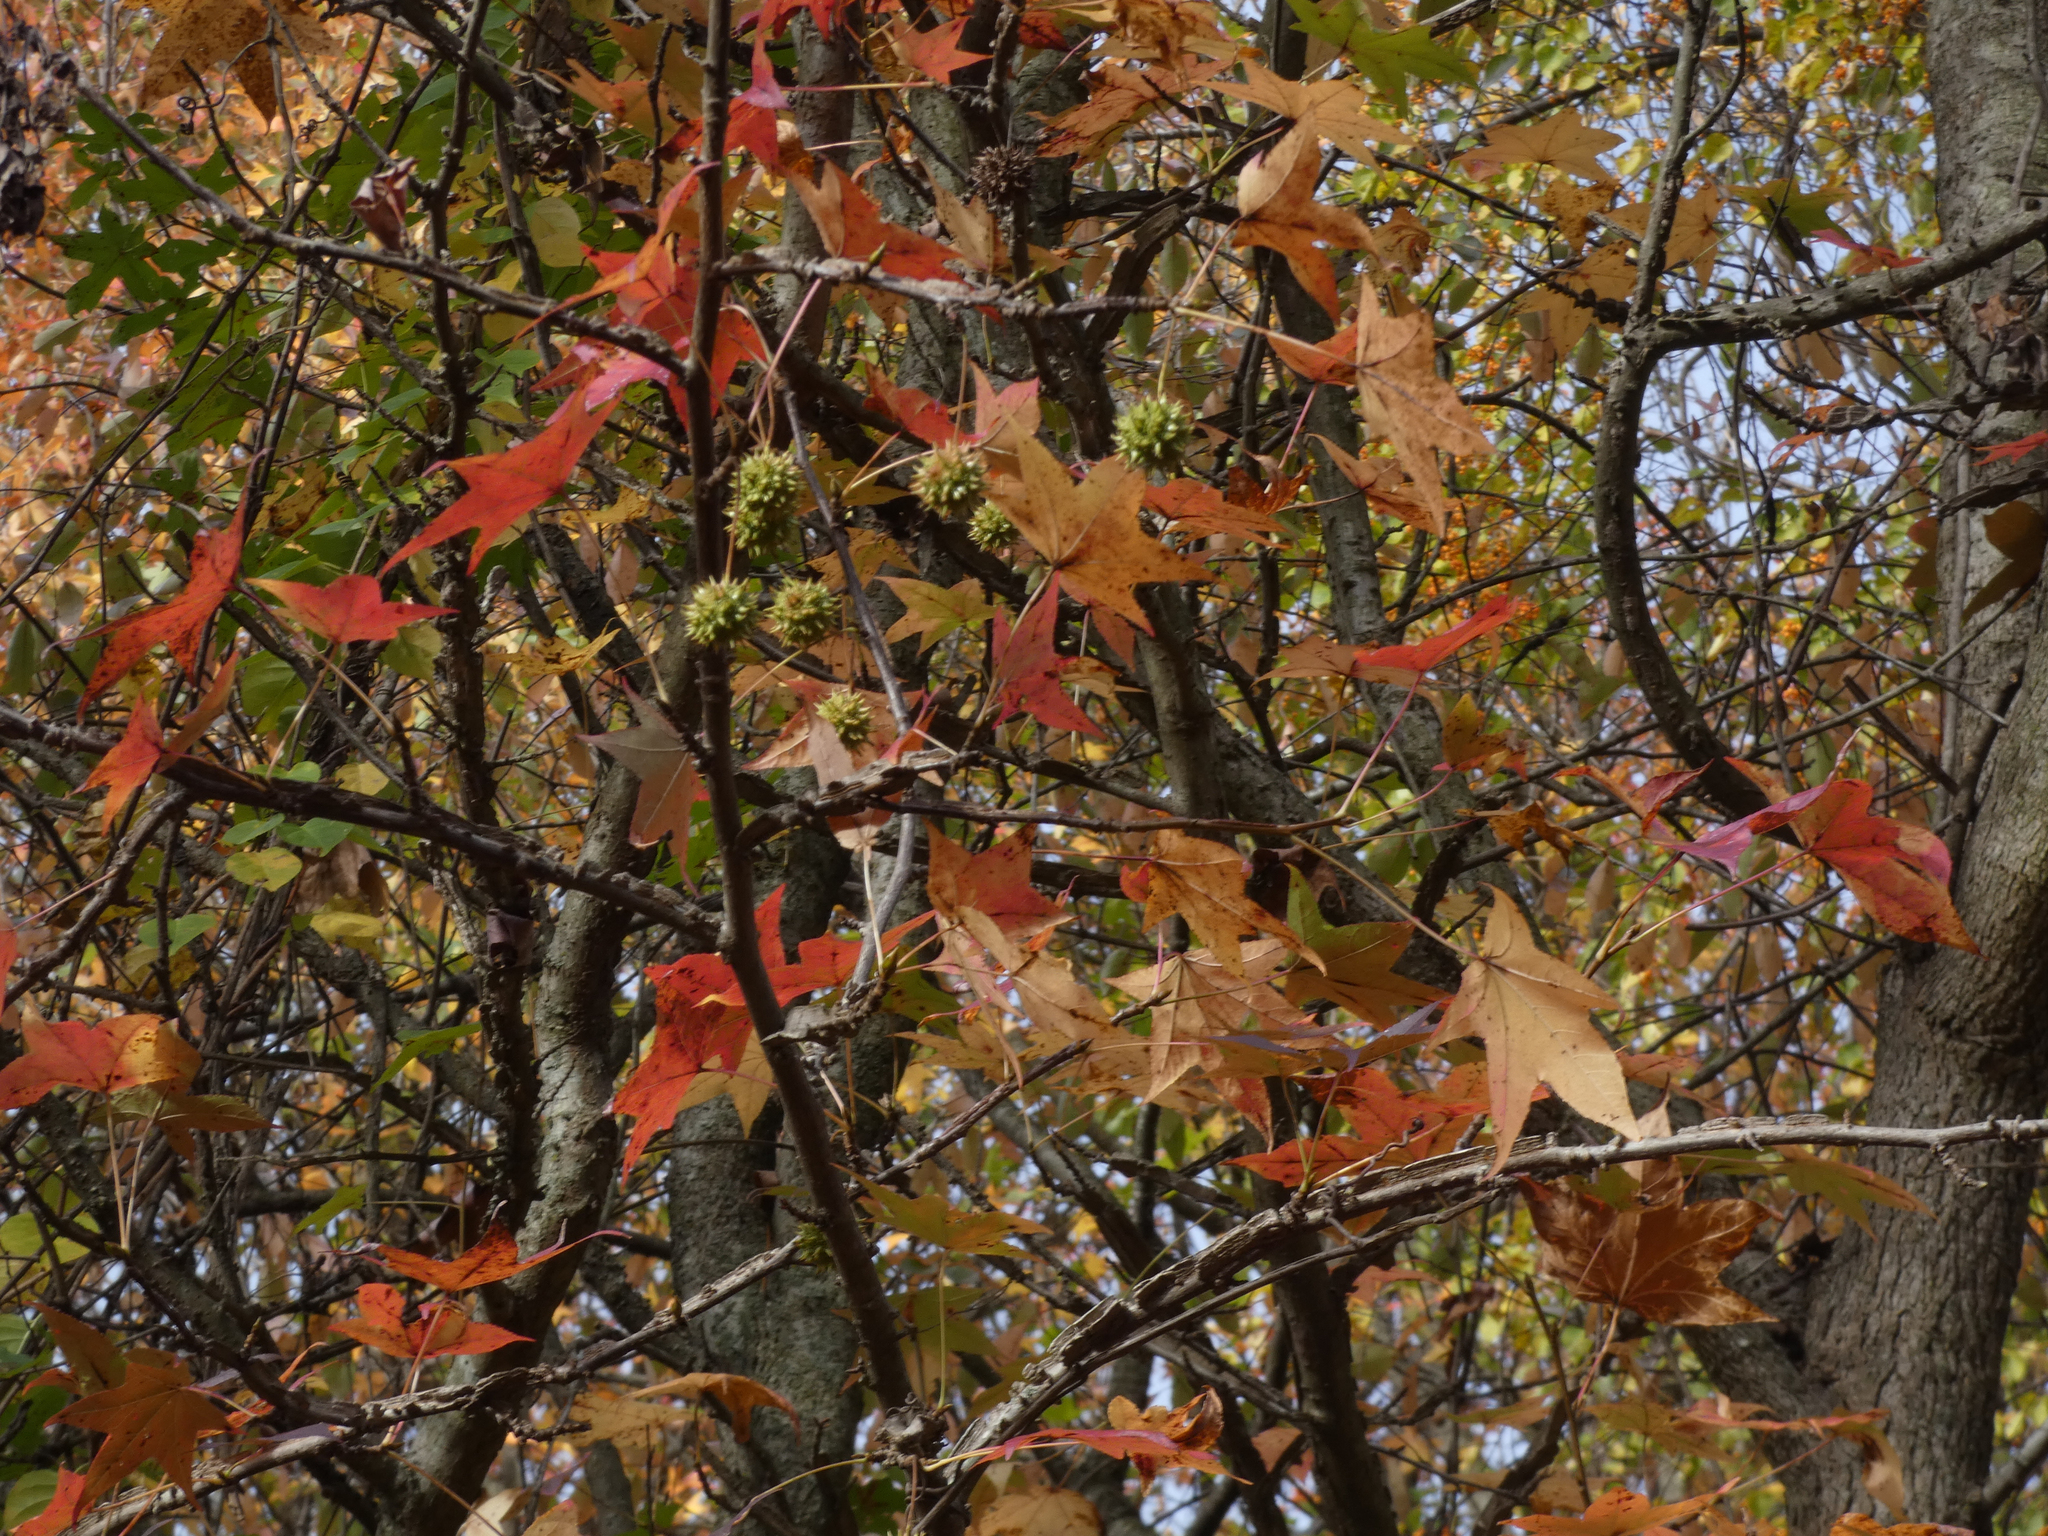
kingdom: Plantae
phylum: Tracheophyta
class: Magnoliopsida
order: Saxifragales
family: Altingiaceae
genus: Liquidambar
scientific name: Liquidambar styraciflua
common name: Sweet gum
